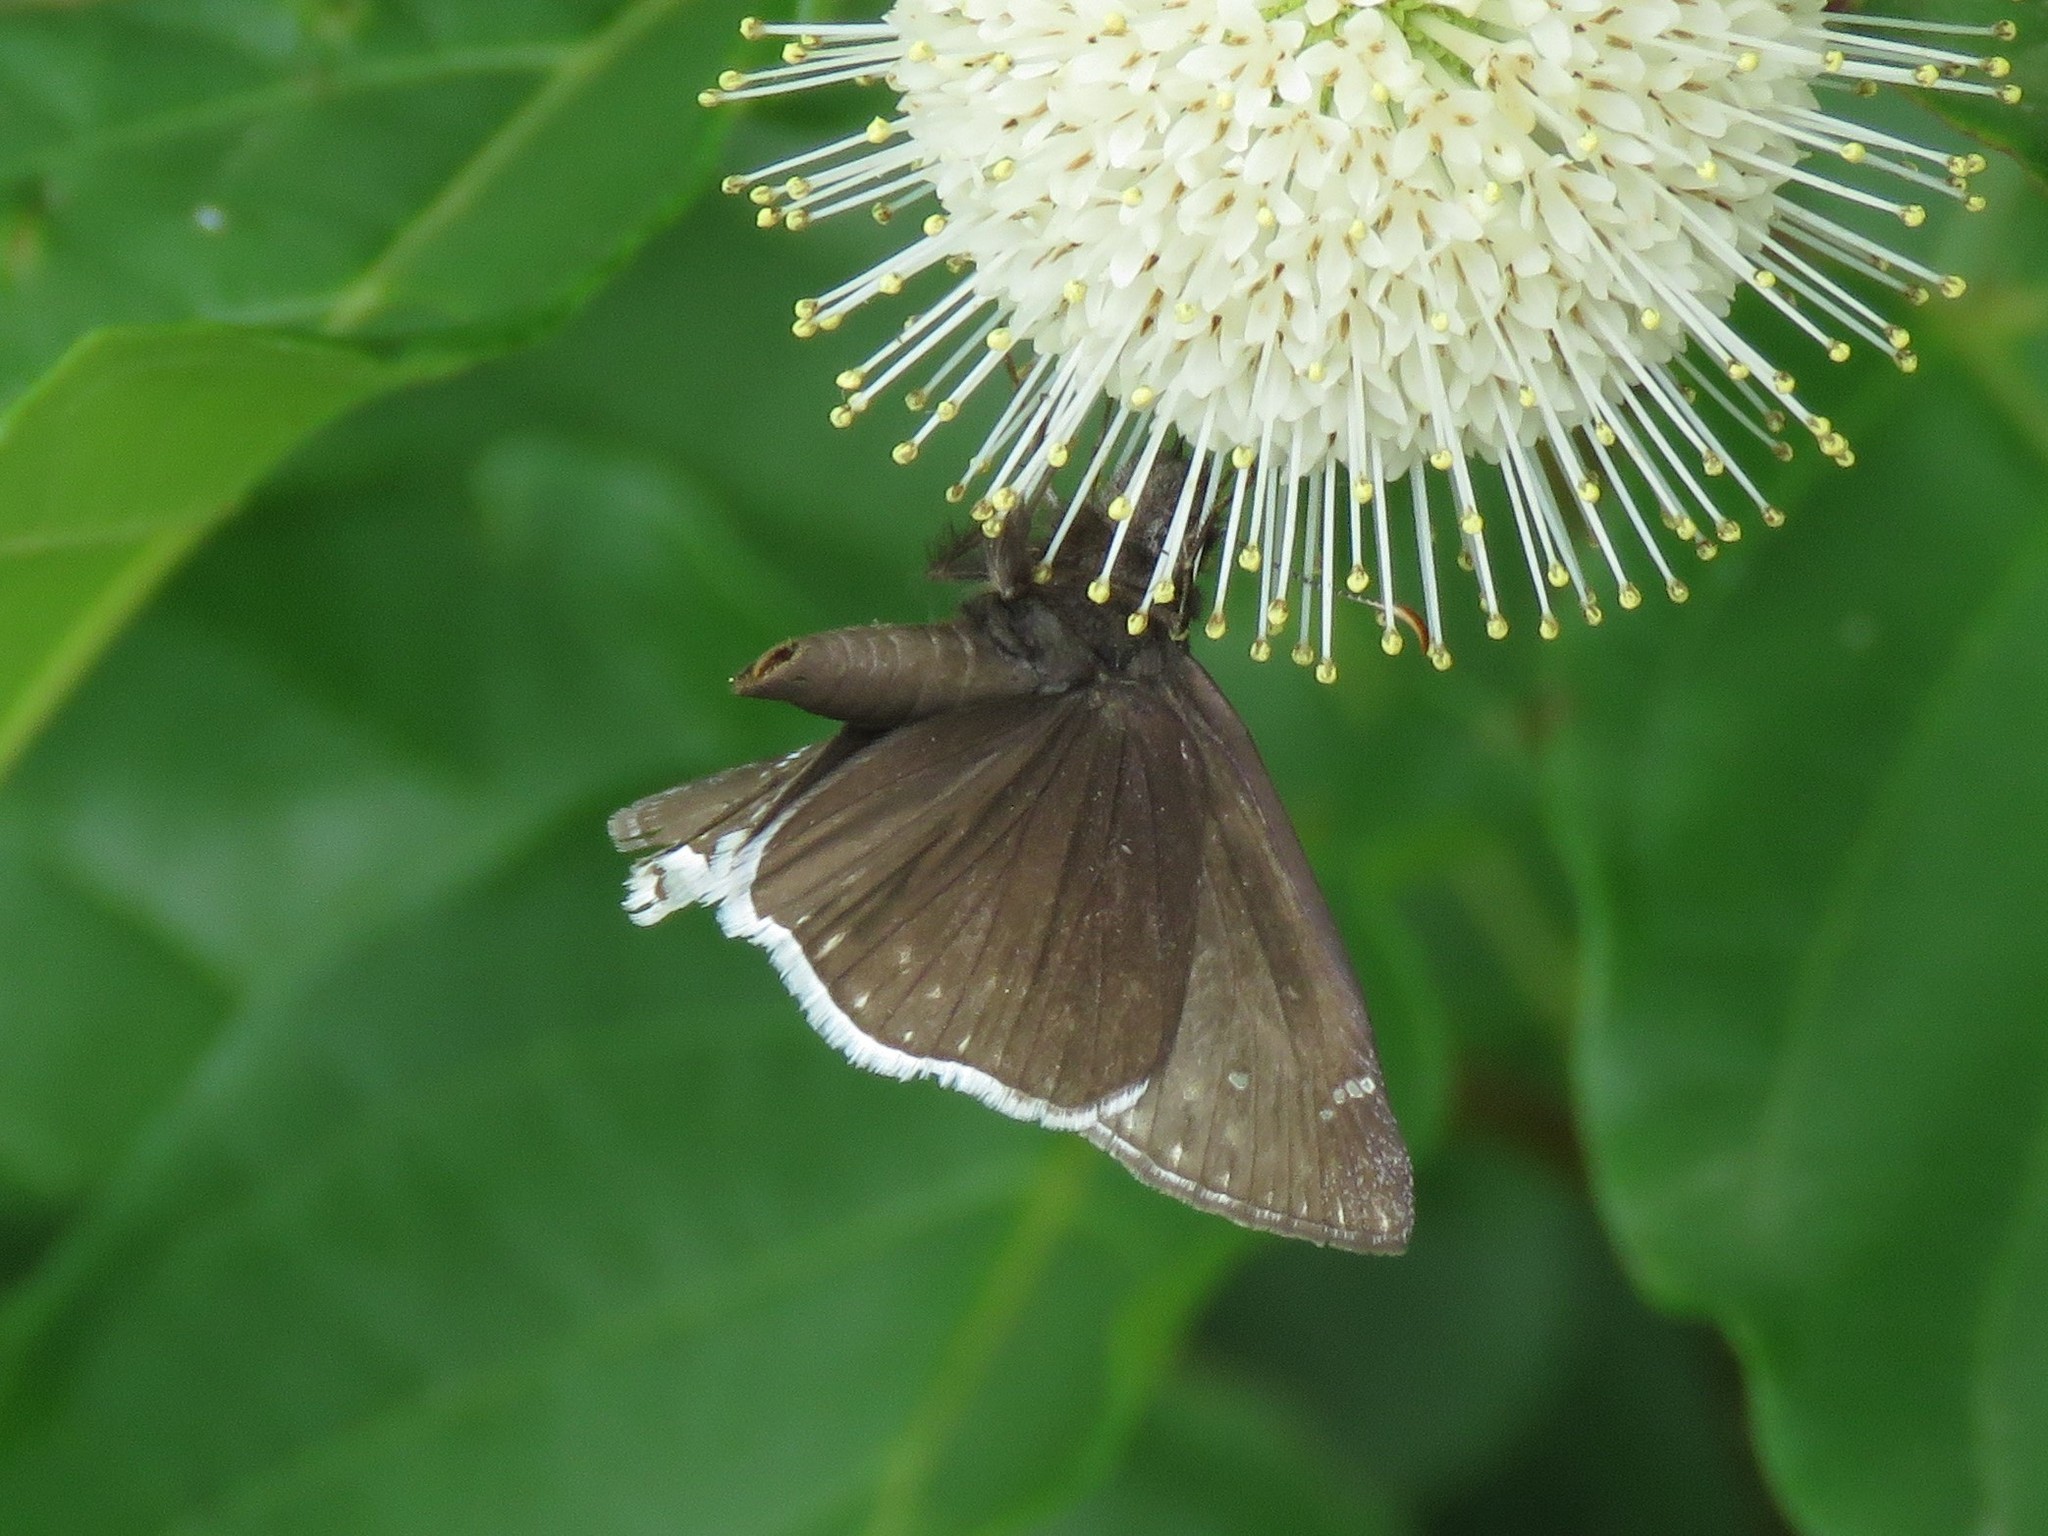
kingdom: Animalia
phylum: Arthropoda
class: Insecta
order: Lepidoptera
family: Hesperiidae
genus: Erynnis
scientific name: Erynnis funeralis
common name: Funereal duskywing
